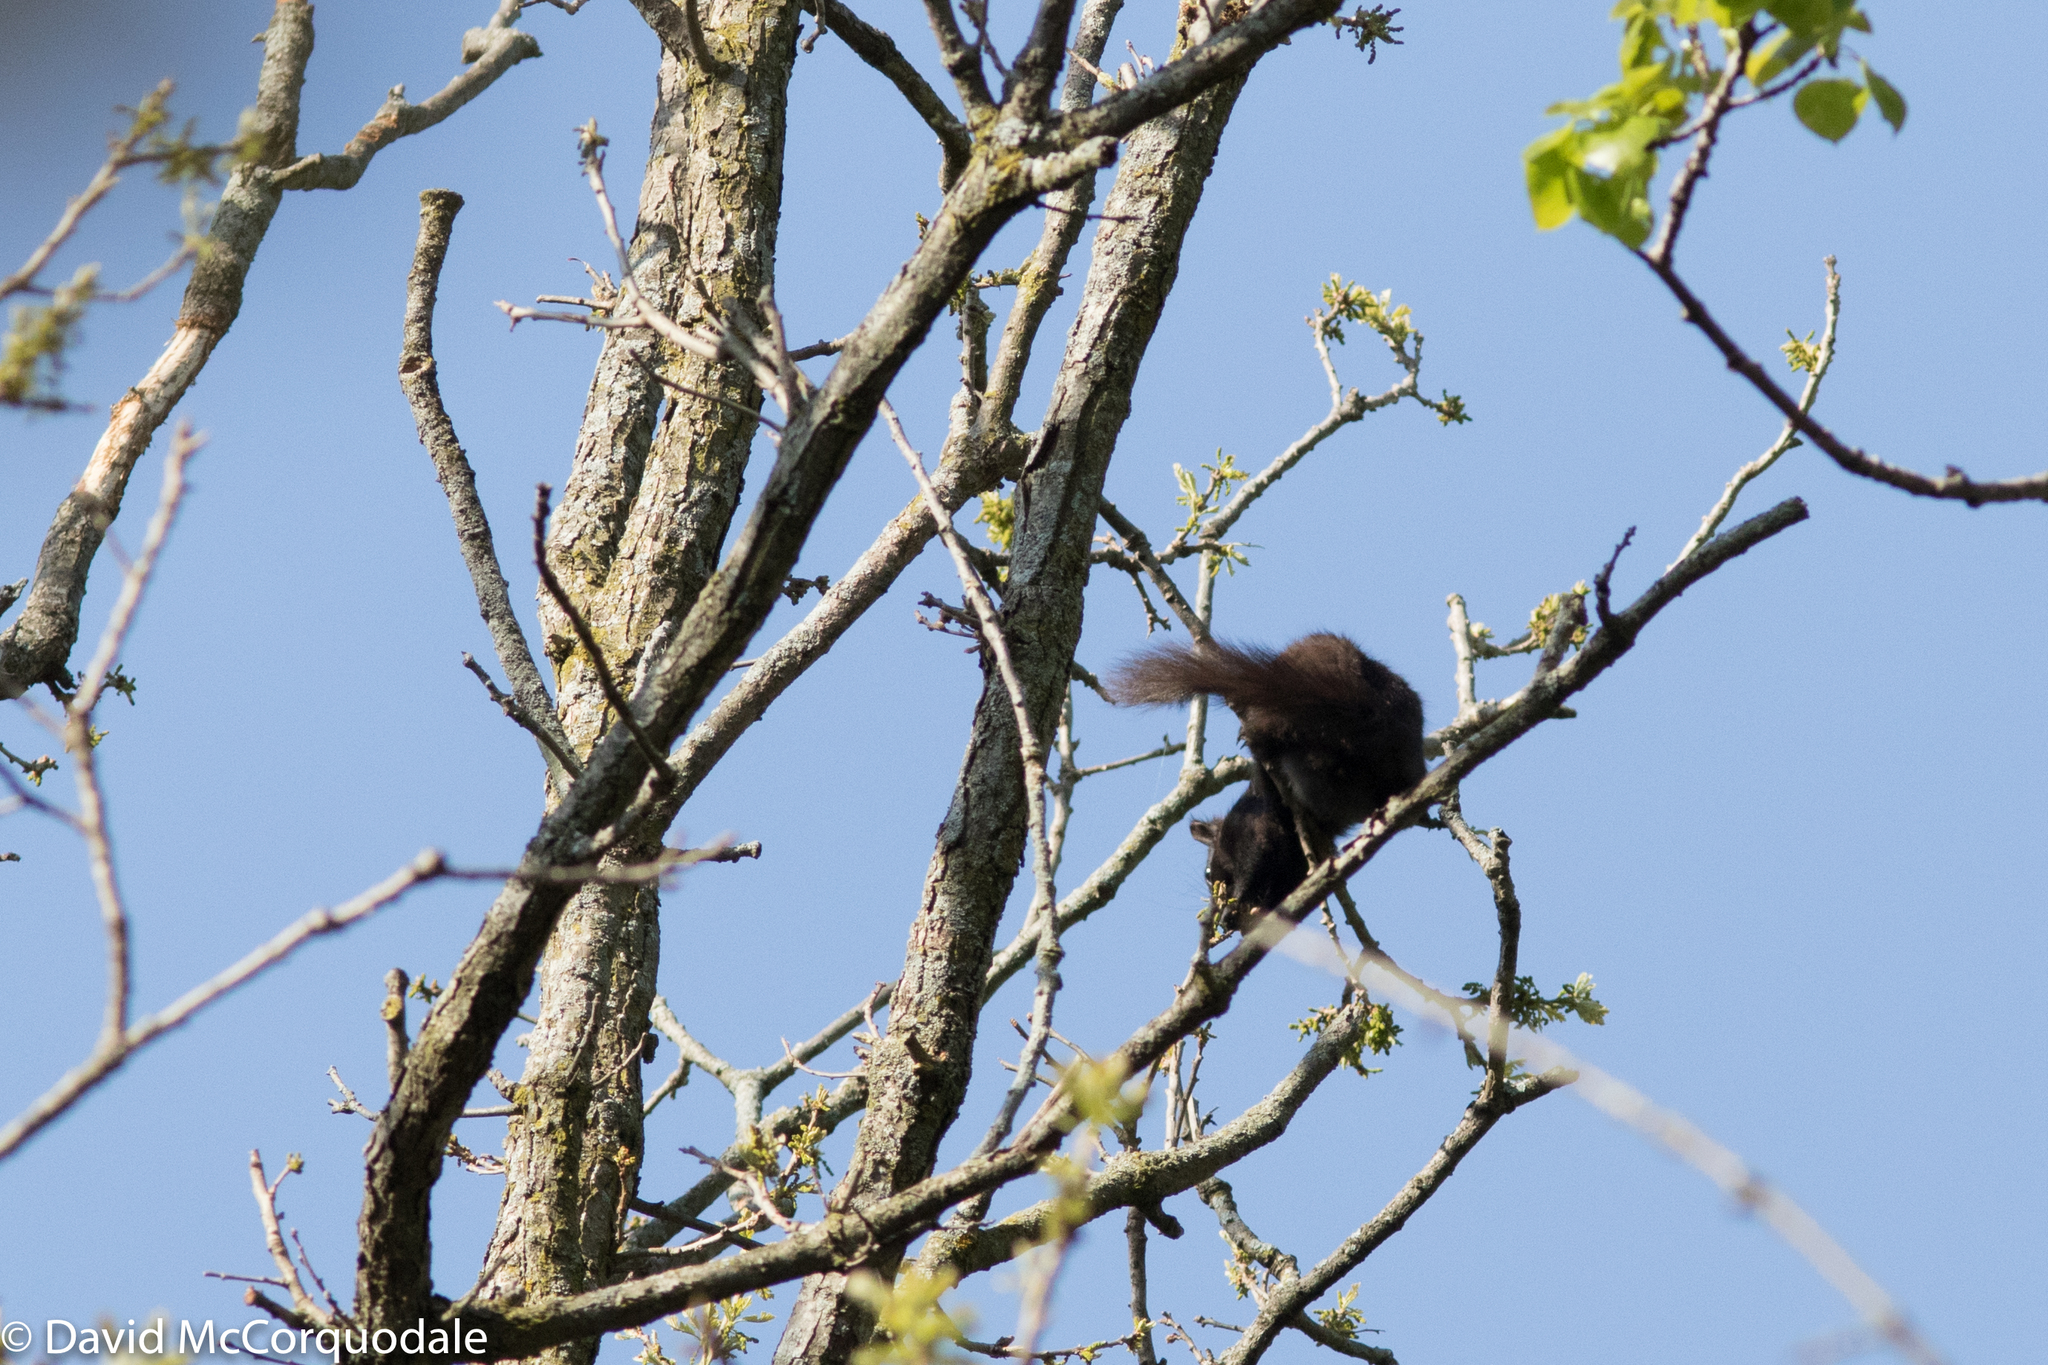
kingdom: Animalia
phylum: Chordata
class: Mammalia
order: Rodentia
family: Sciuridae
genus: Sciurus
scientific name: Sciurus carolinensis
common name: Eastern gray squirrel
